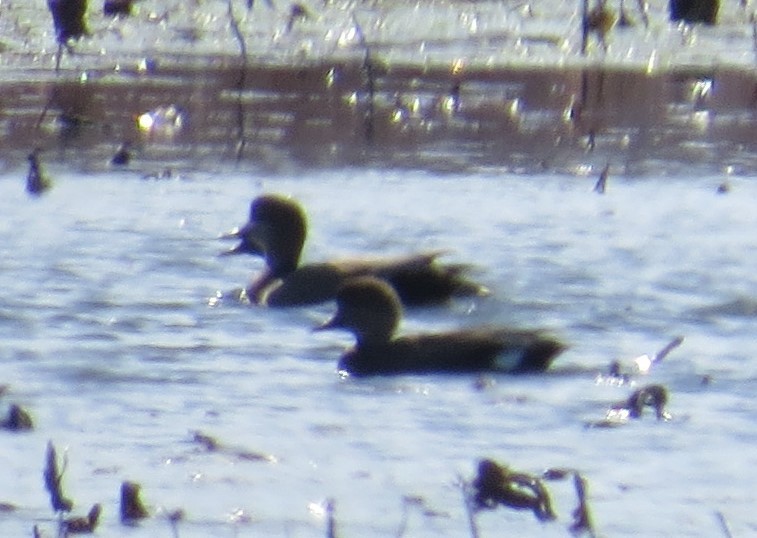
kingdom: Animalia
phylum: Chordata
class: Aves
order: Anseriformes
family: Anatidae
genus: Mareca
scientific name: Mareca strepera
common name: Gadwall
